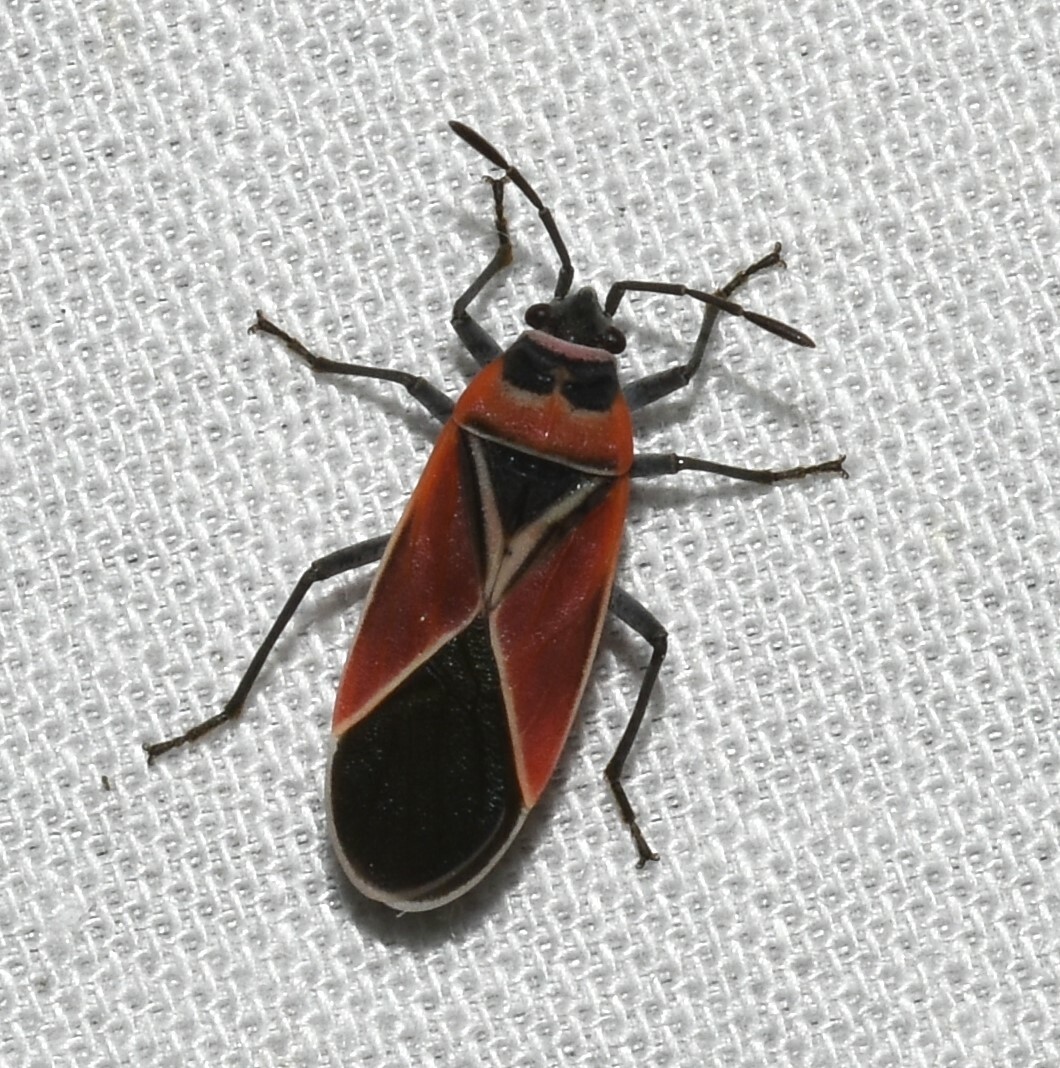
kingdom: Animalia
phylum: Arthropoda
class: Insecta
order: Hemiptera
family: Lygaeidae
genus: Neacoryphus
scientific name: Neacoryphus bicrucis
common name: Lygaeid bug
